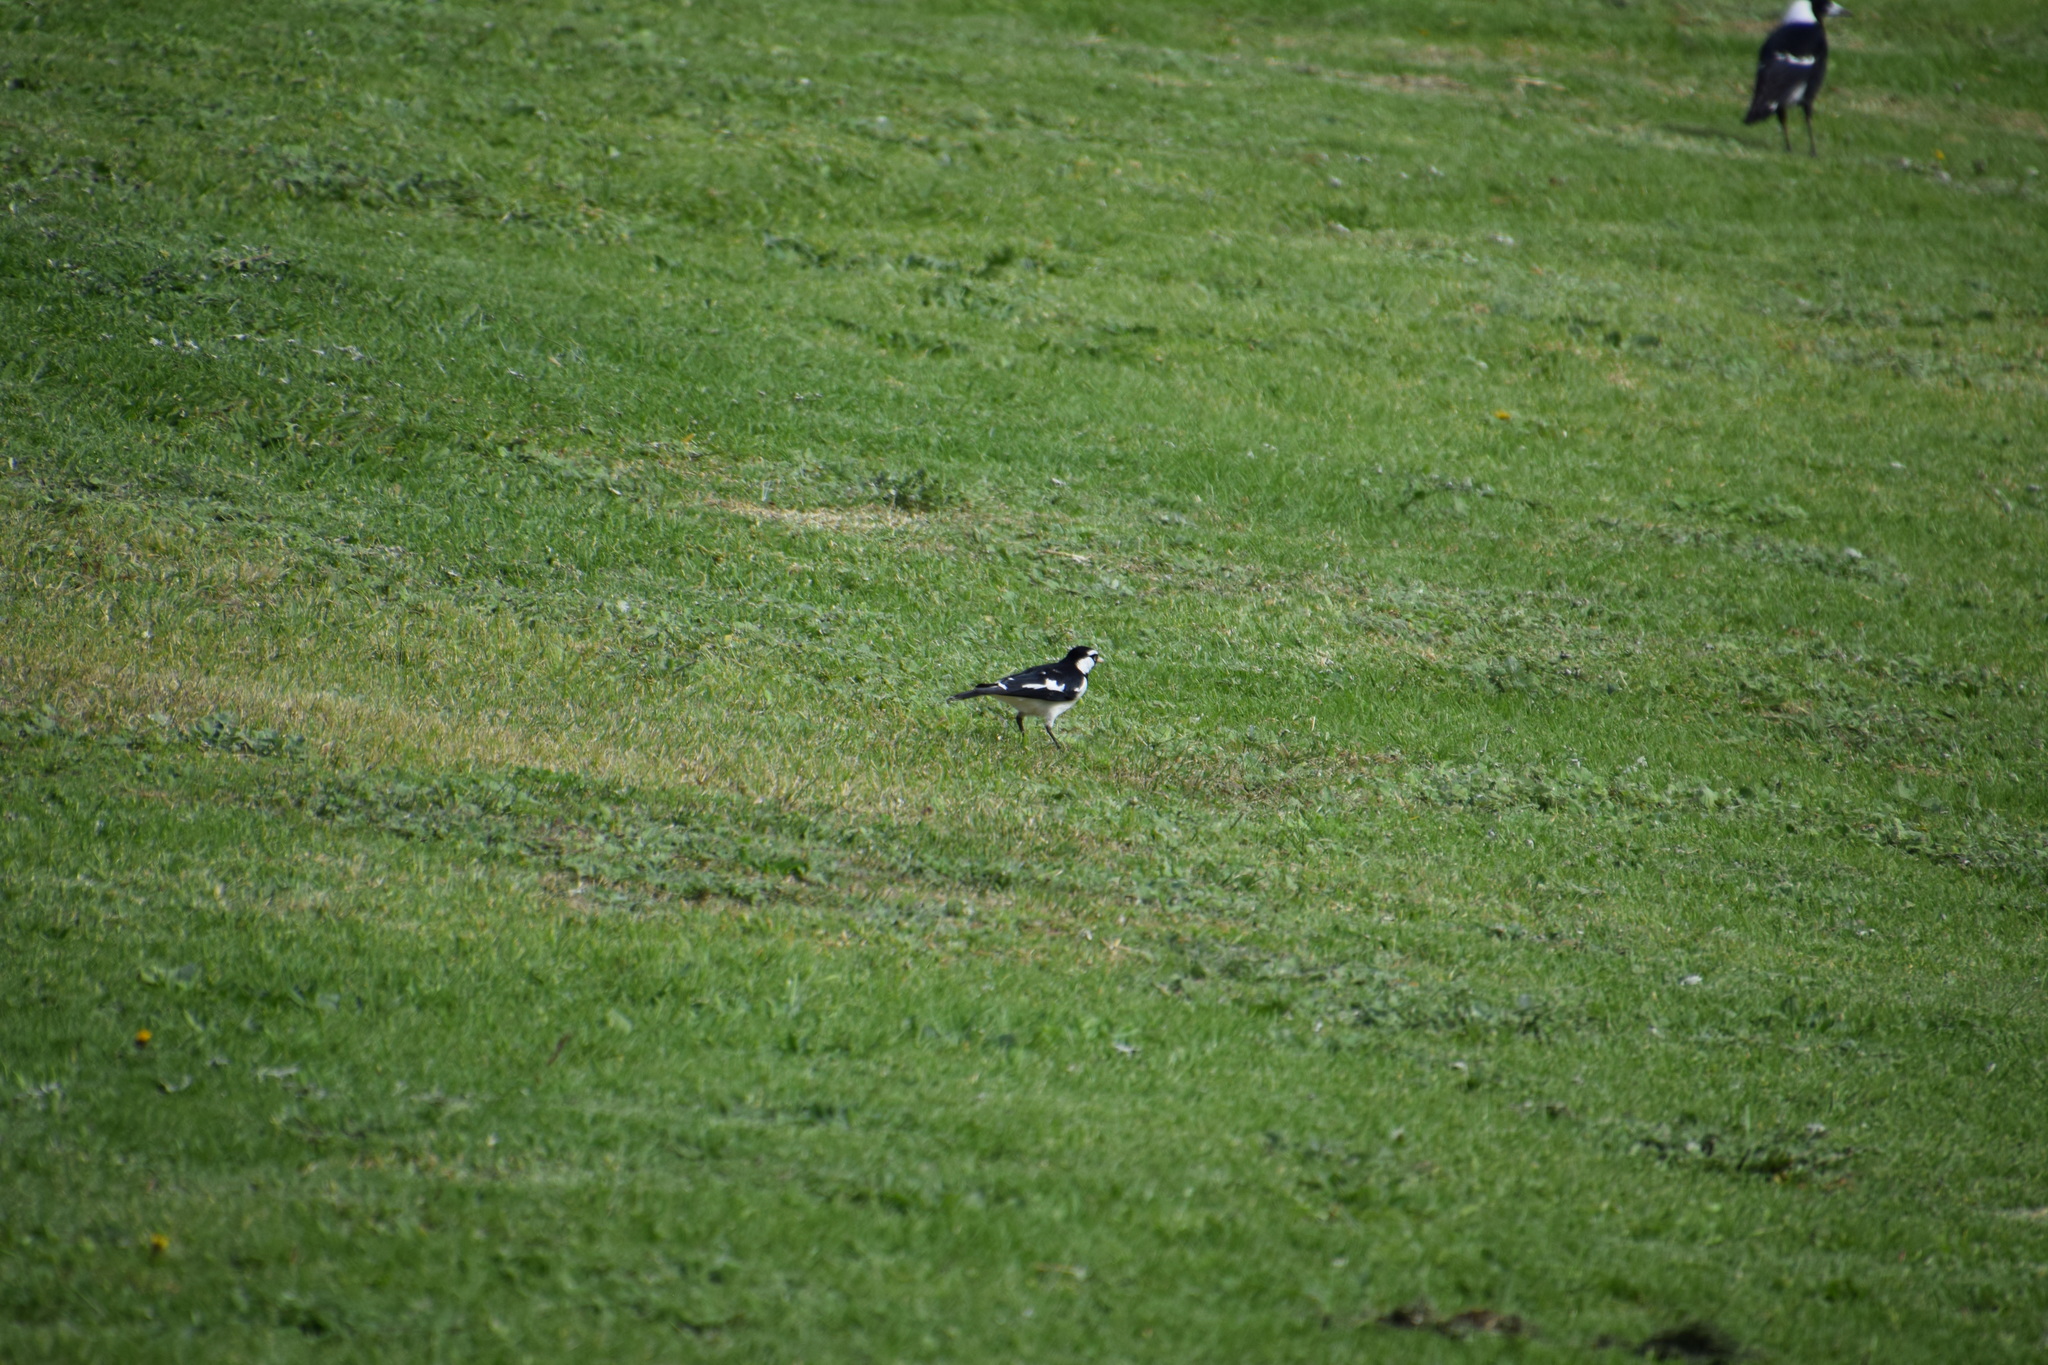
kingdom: Animalia
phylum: Chordata
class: Aves
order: Passeriformes
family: Monarchidae
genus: Grallina
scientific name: Grallina cyanoleuca
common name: Magpie-lark
